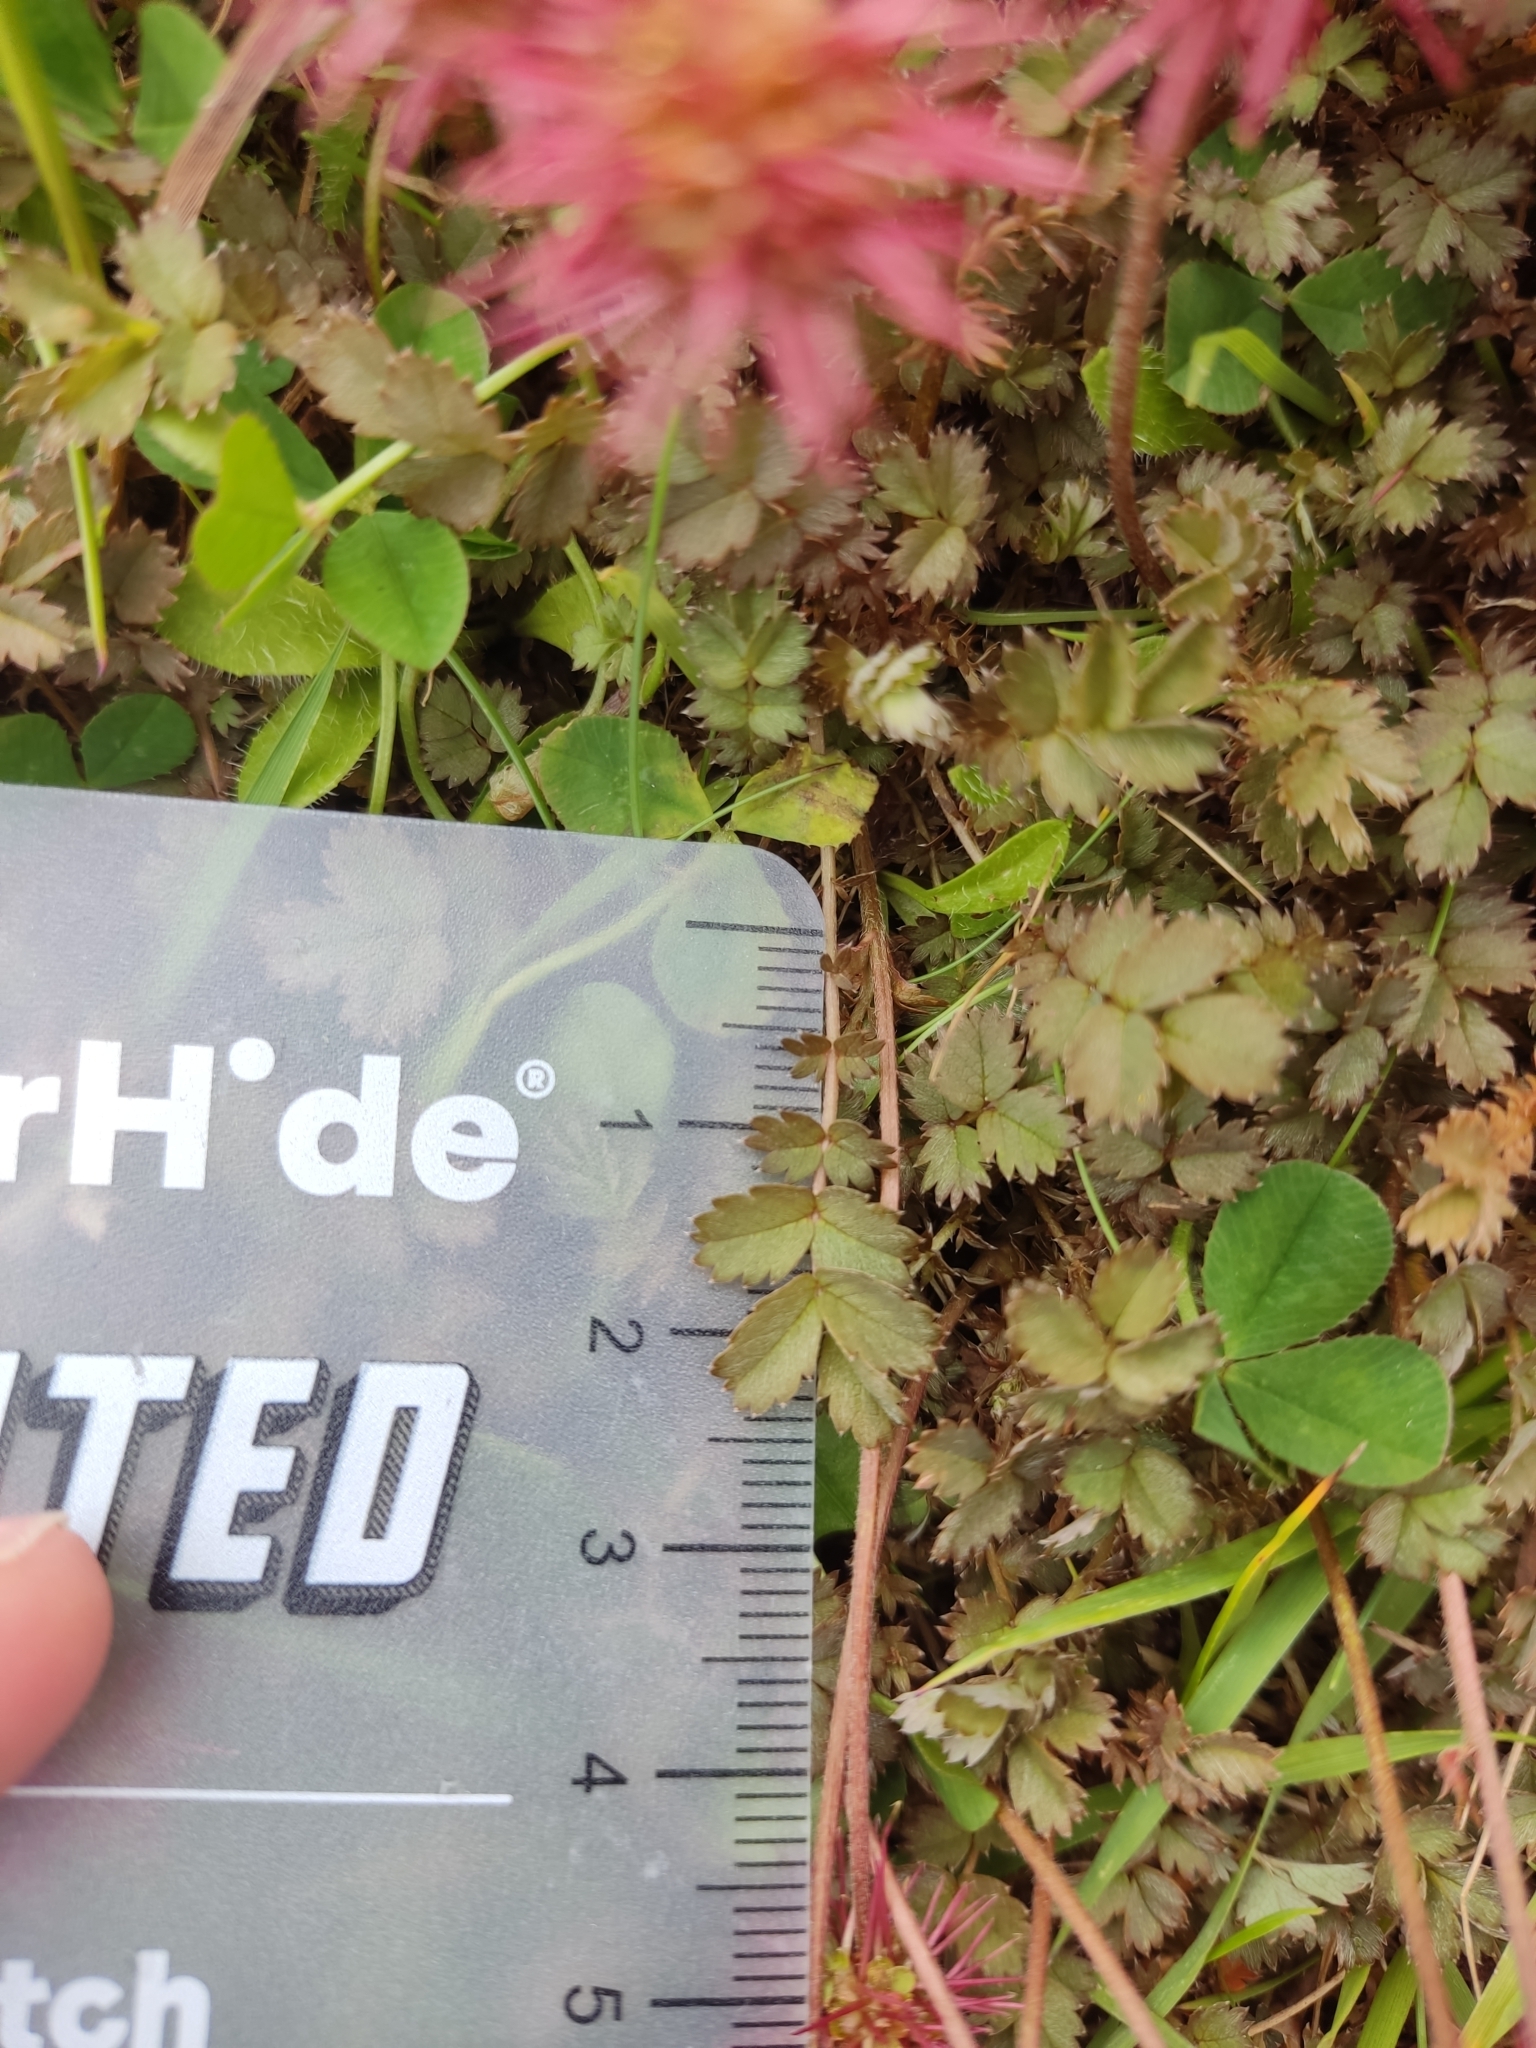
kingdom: Plantae
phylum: Tracheophyta
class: Magnoliopsida
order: Rosales
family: Rosaceae
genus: Acaena
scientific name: Acaena inermis
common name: Spineless acaena
